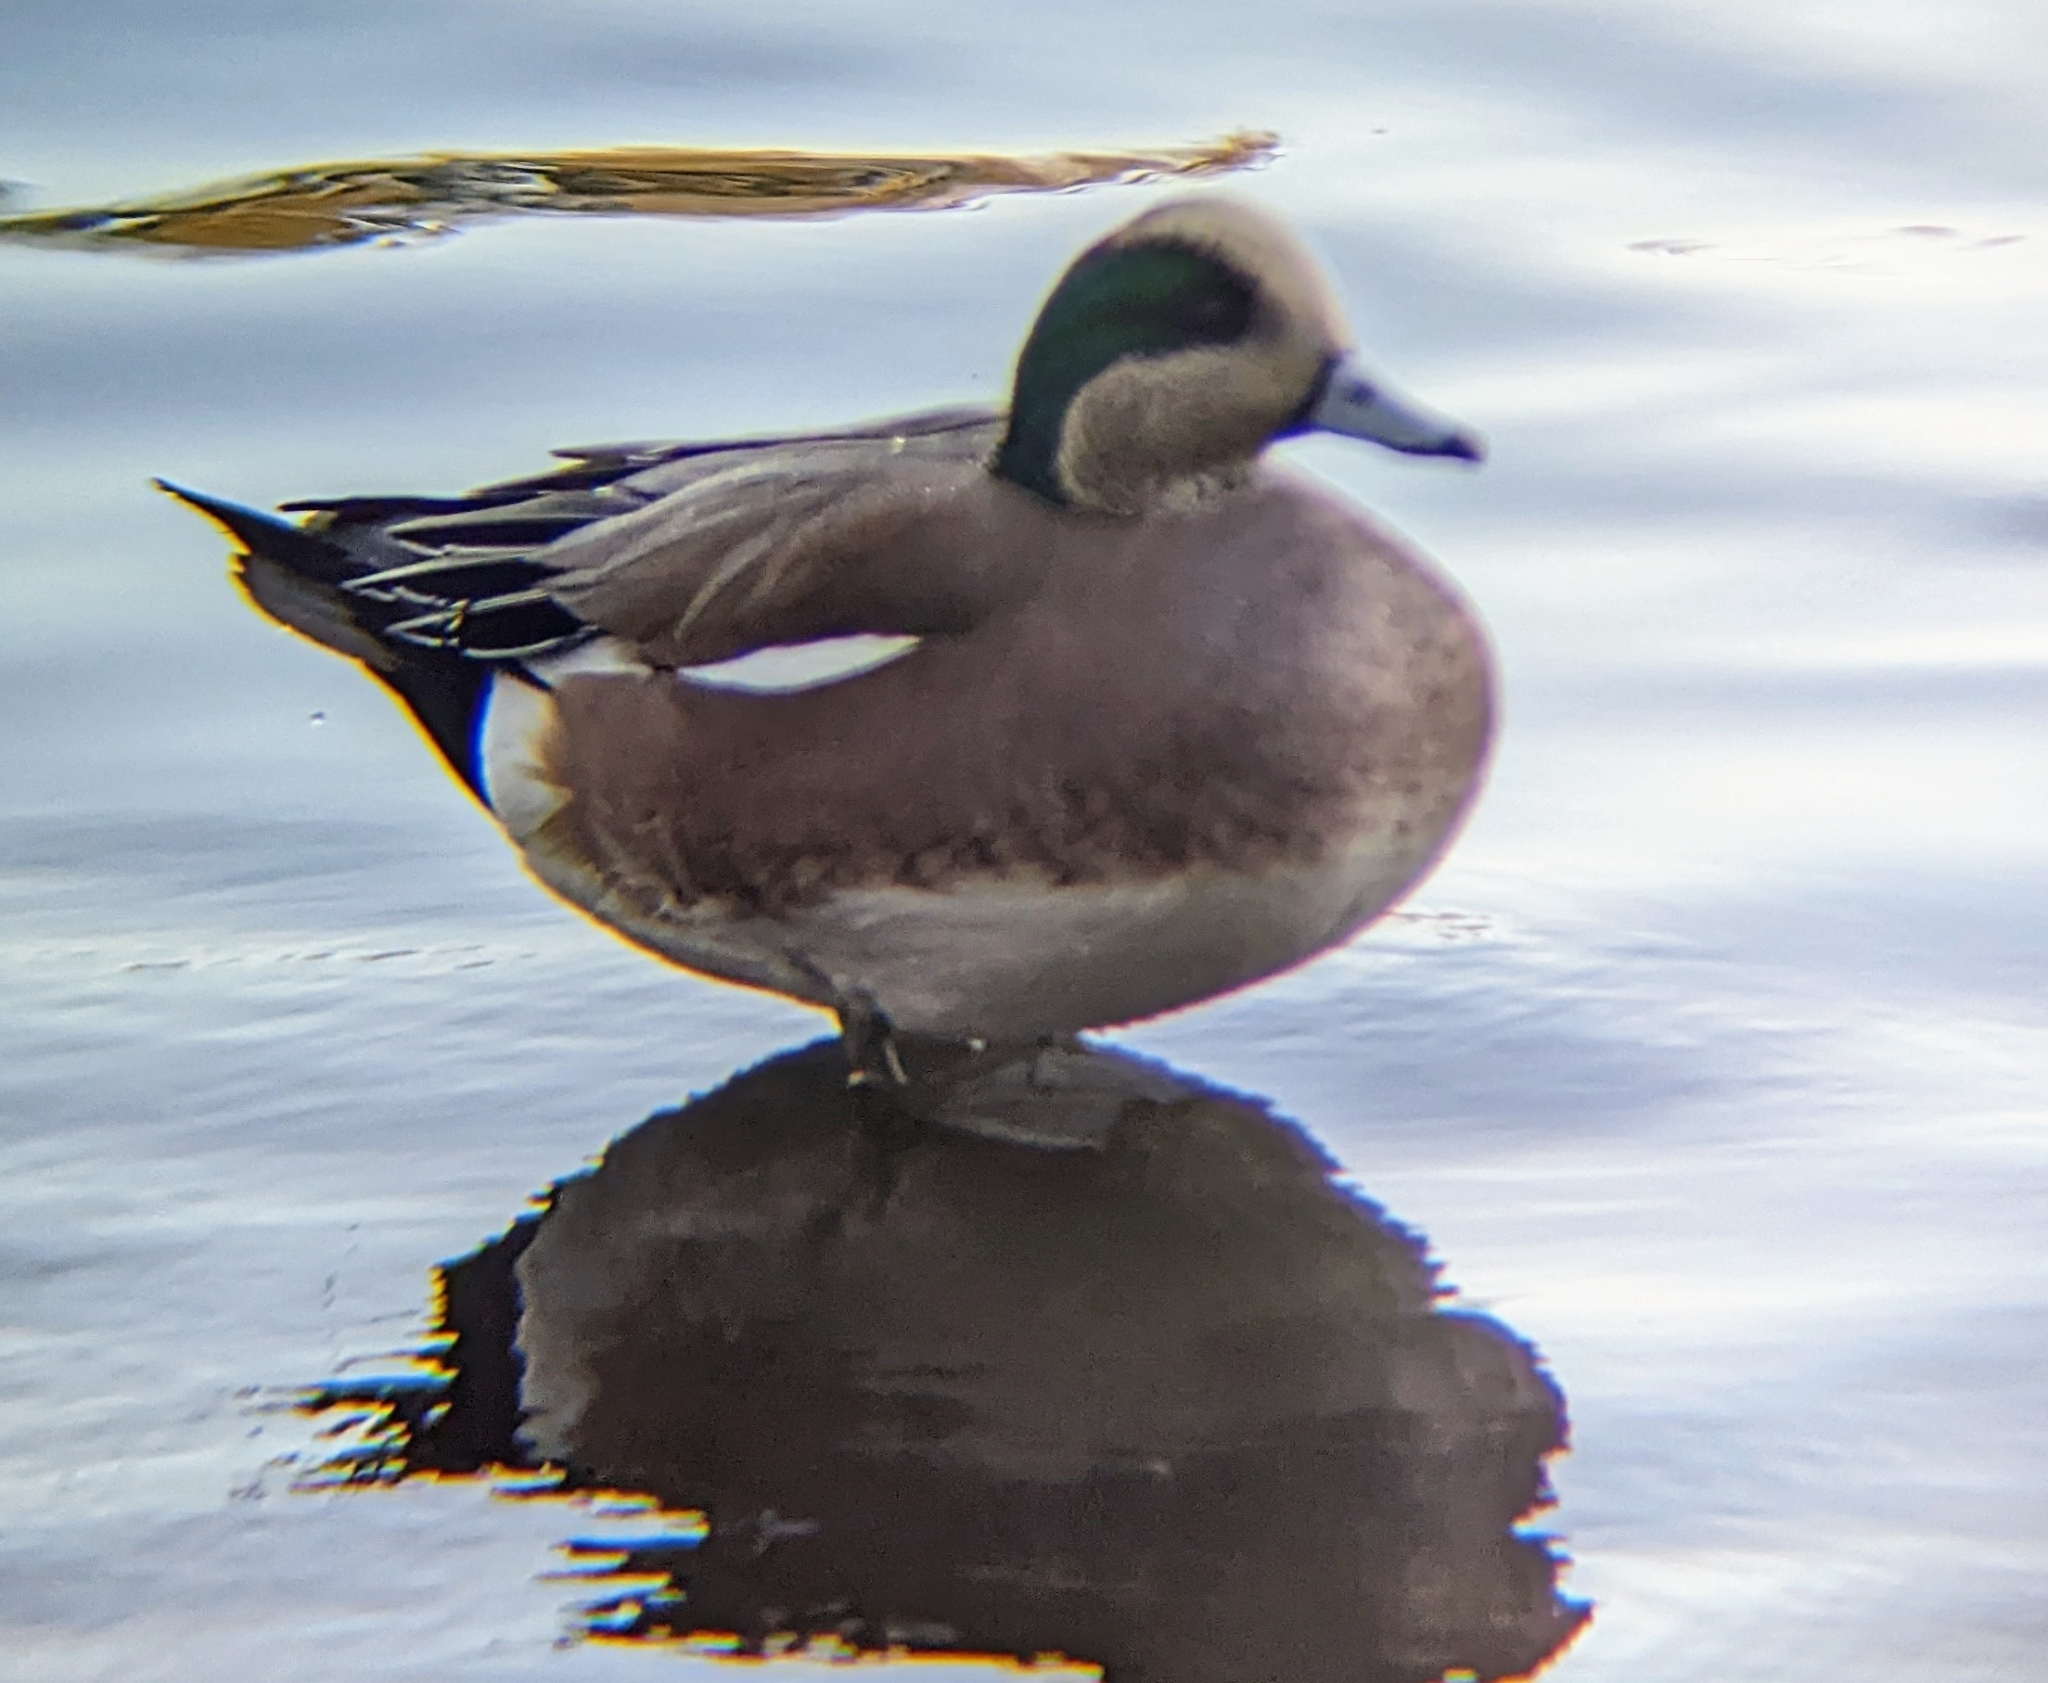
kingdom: Animalia
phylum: Chordata
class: Aves
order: Anseriformes
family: Anatidae
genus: Mareca
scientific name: Mareca americana
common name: American wigeon
